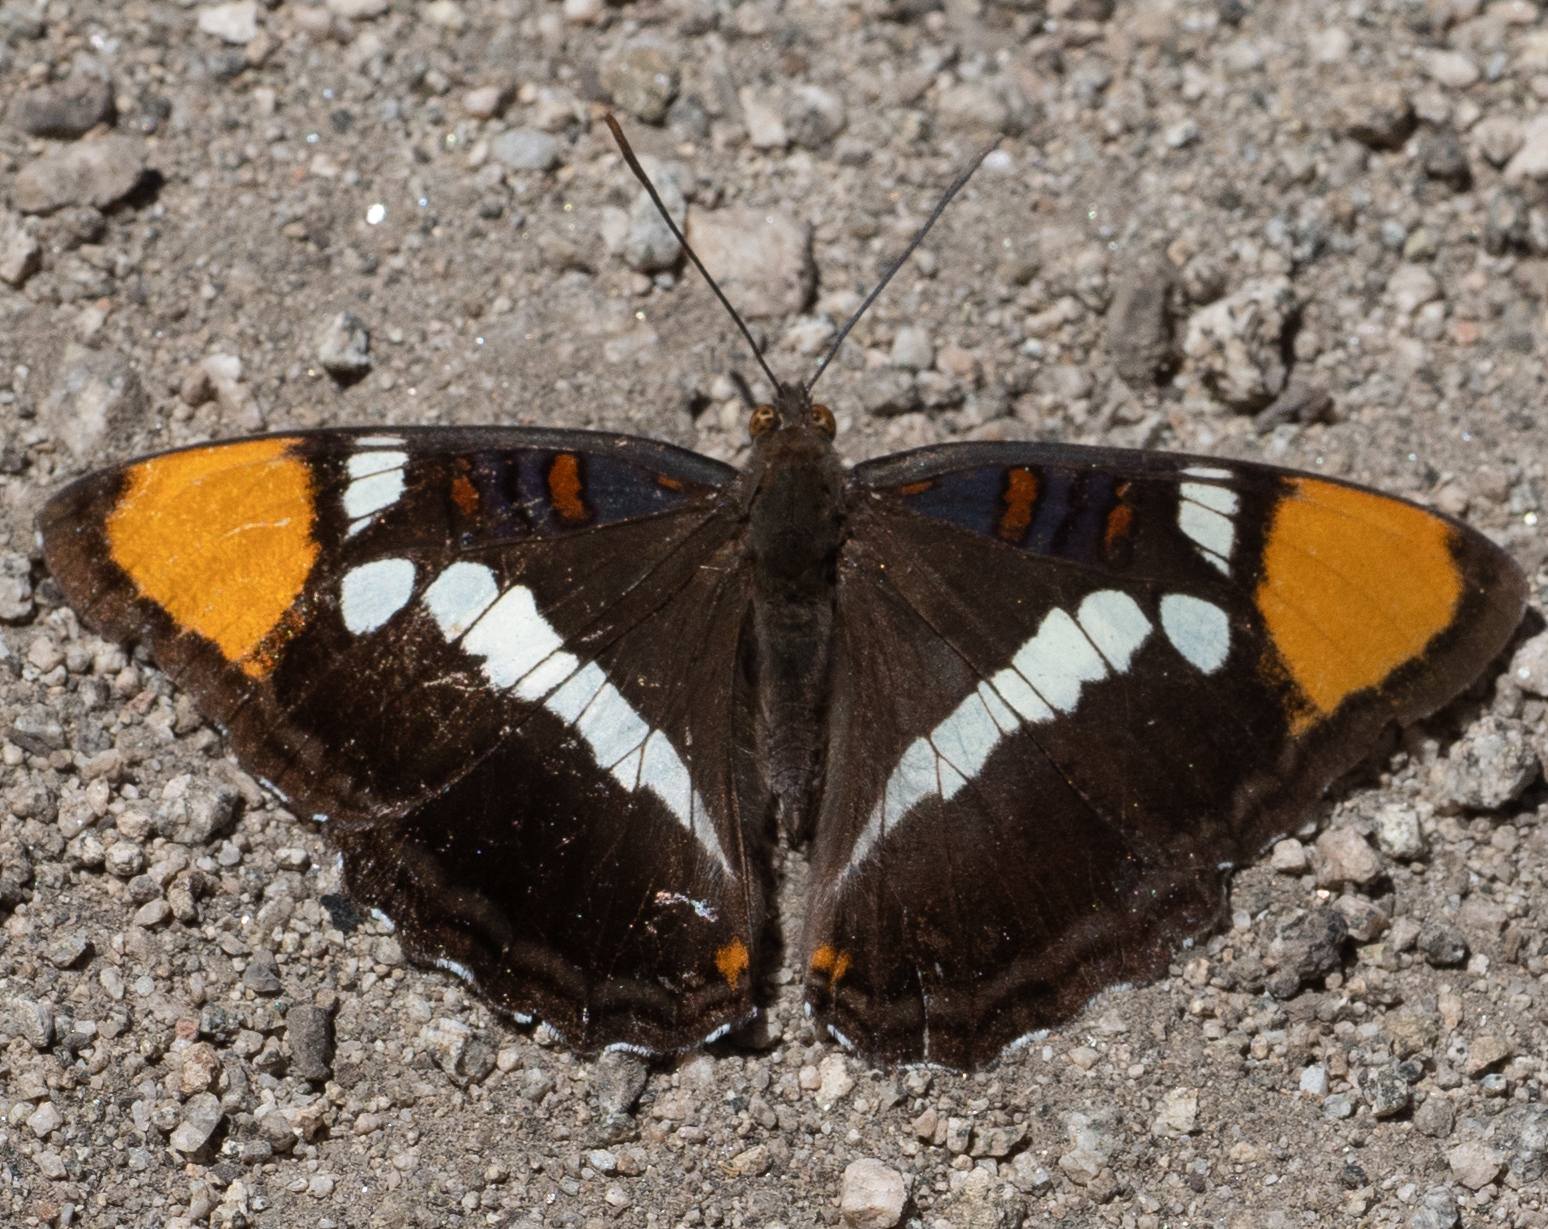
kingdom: Animalia
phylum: Arthropoda
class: Insecta
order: Lepidoptera
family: Nymphalidae
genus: Limenitis
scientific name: Limenitis bredowii
